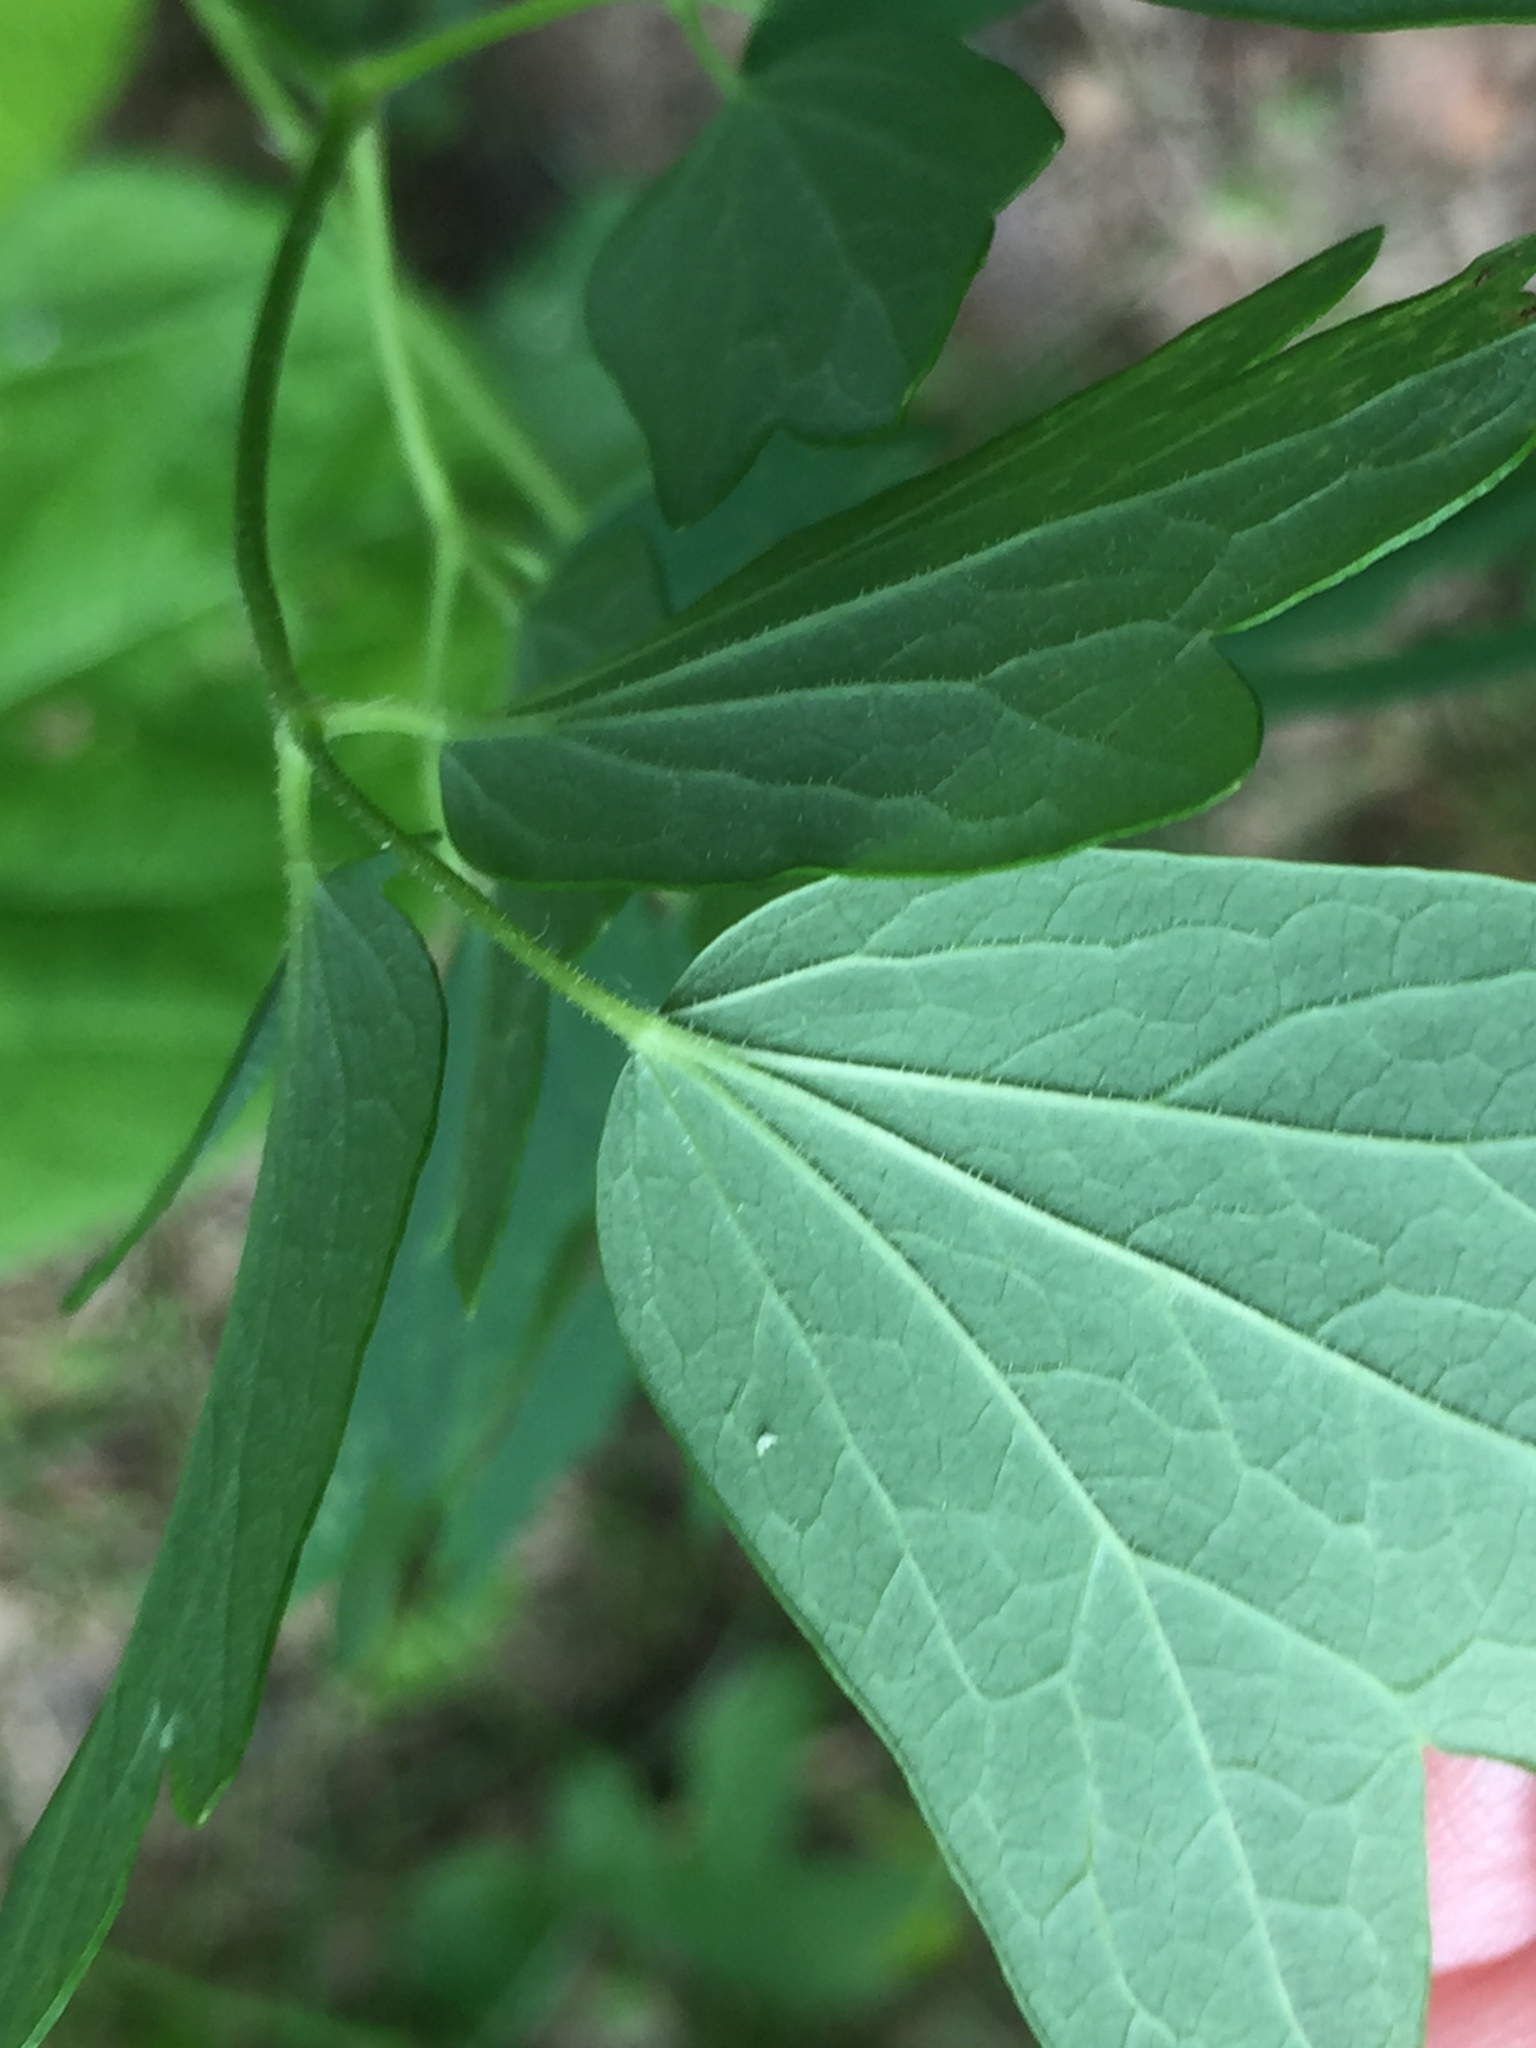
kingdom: Plantae
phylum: Tracheophyta
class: Magnoliopsida
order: Ranunculales
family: Ranunculaceae
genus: Thalictrum
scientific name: Thalictrum dasycarpum
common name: Purple meadow-rue
